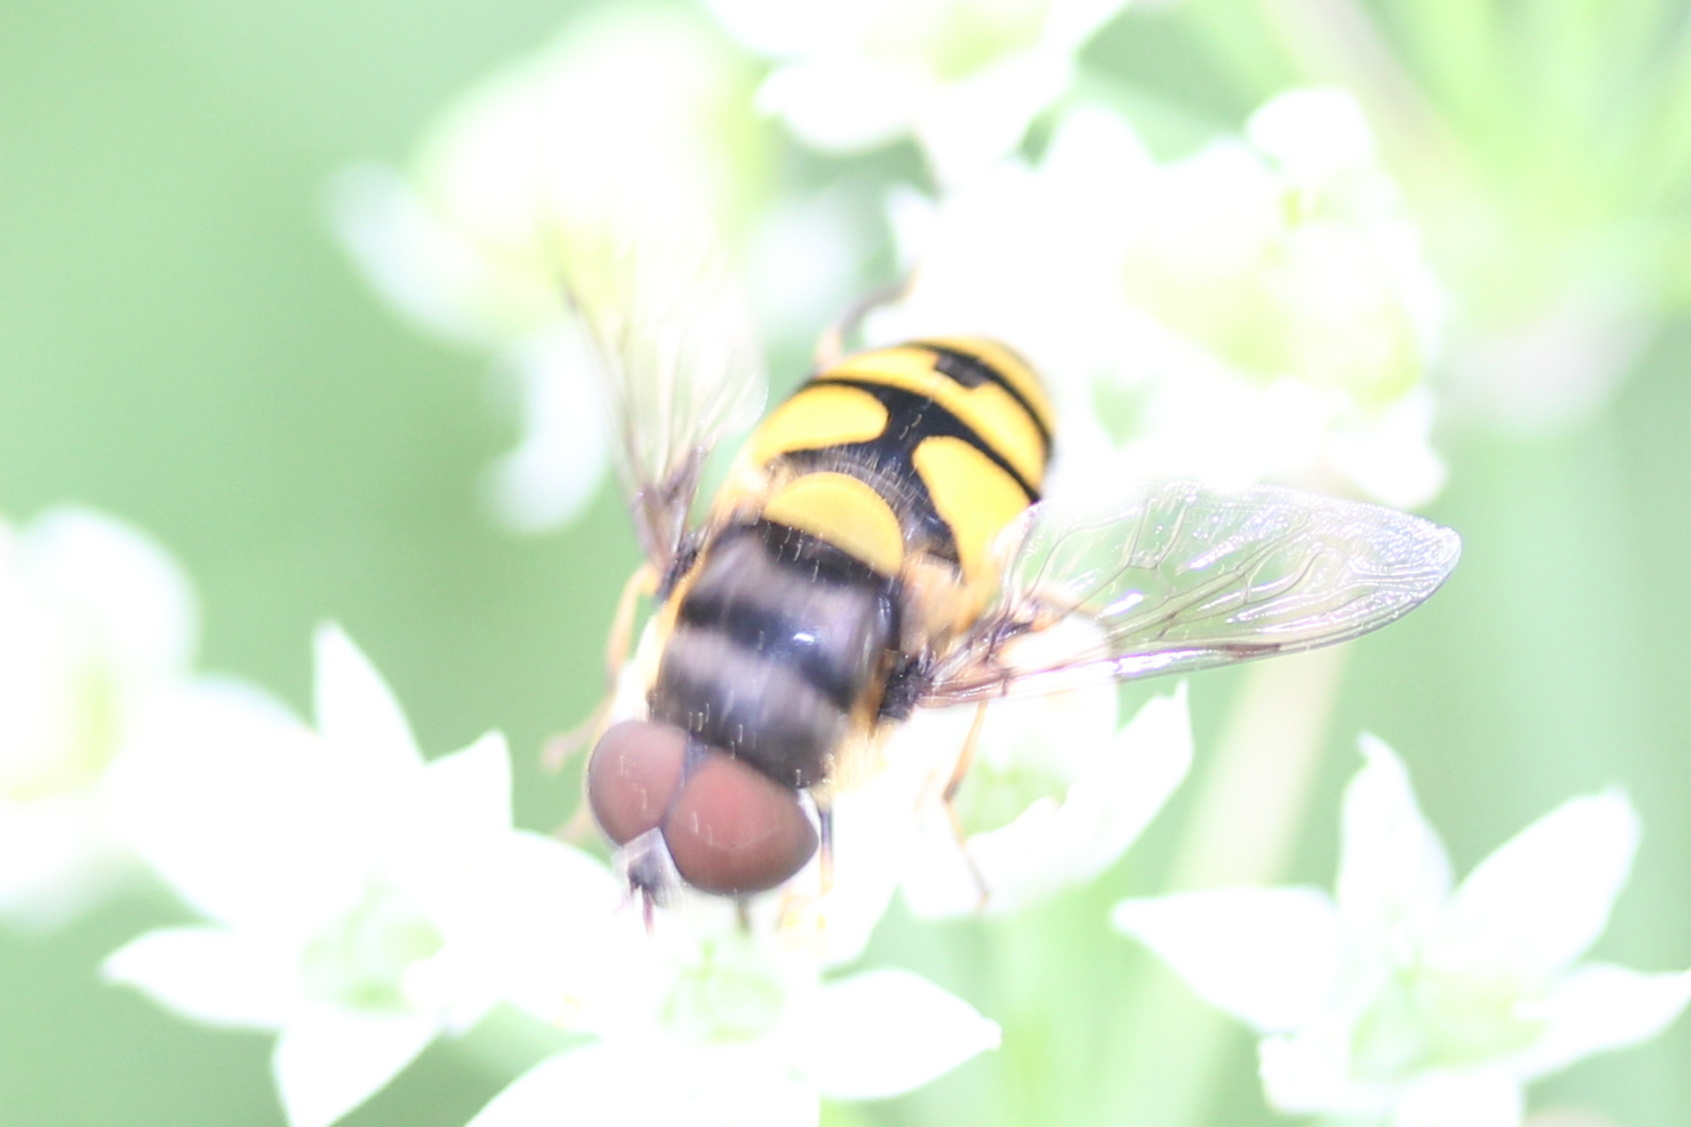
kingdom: Animalia
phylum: Arthropoda
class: Insecta
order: Diptera
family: Syrphidae
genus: Eristalis
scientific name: Eristalis transversa
